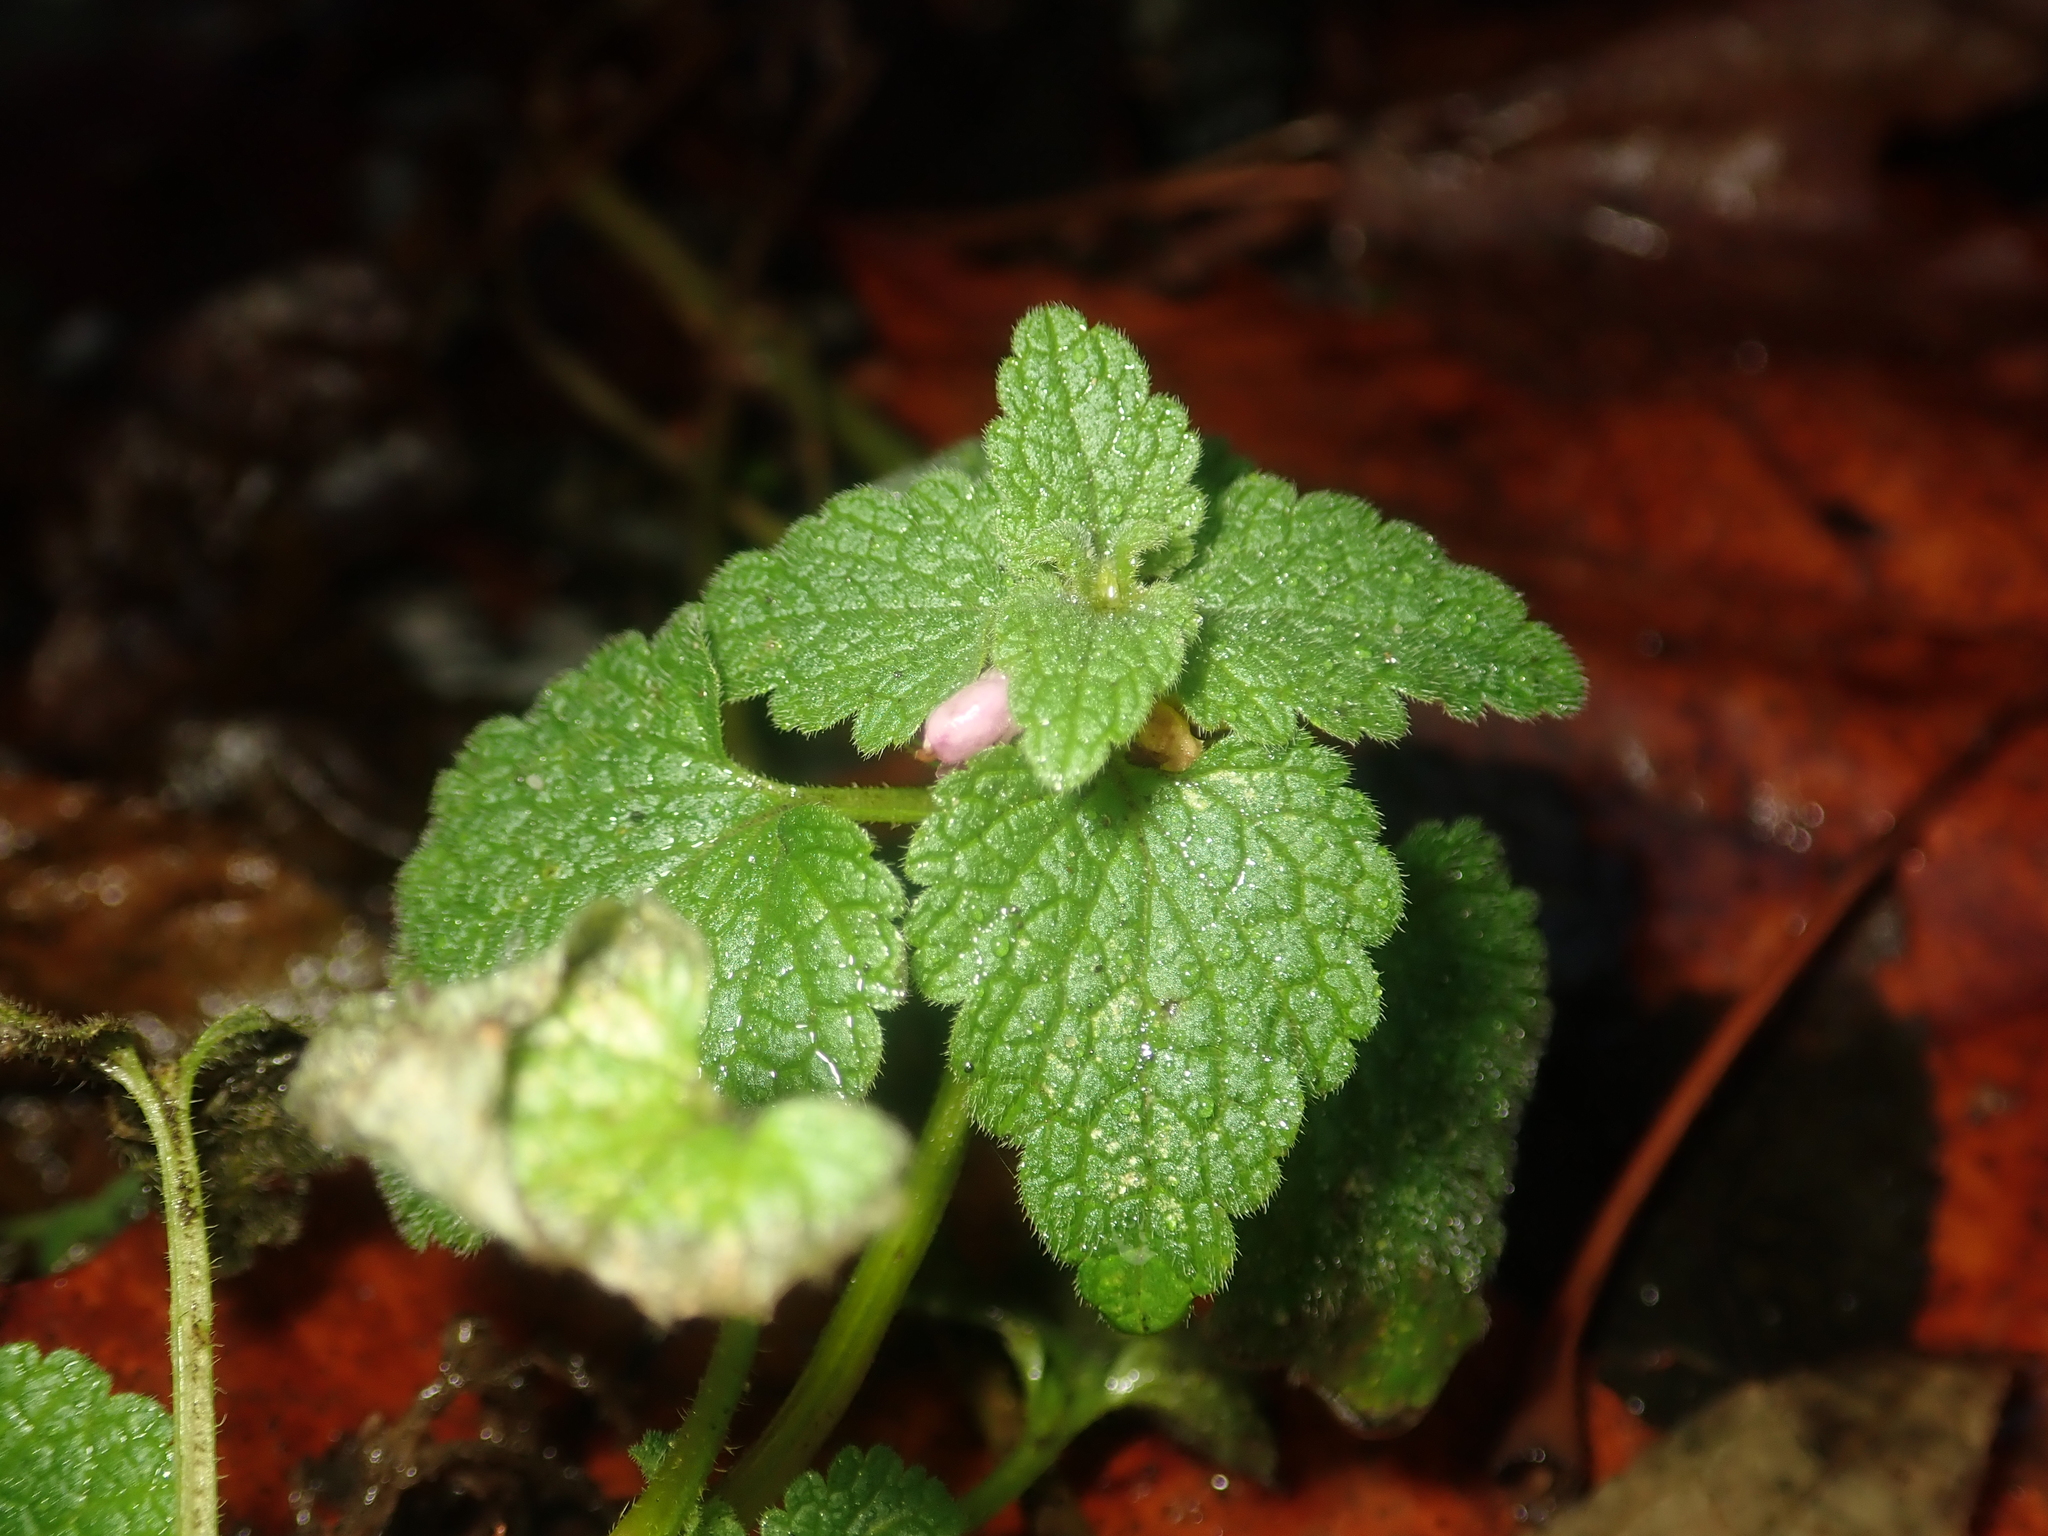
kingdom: Plantae
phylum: Tracheophyta
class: Magnoliopsida
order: Lamiales
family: Lamiaceae
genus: Lamium
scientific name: Lamium purpureum
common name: Red dead-nettle
